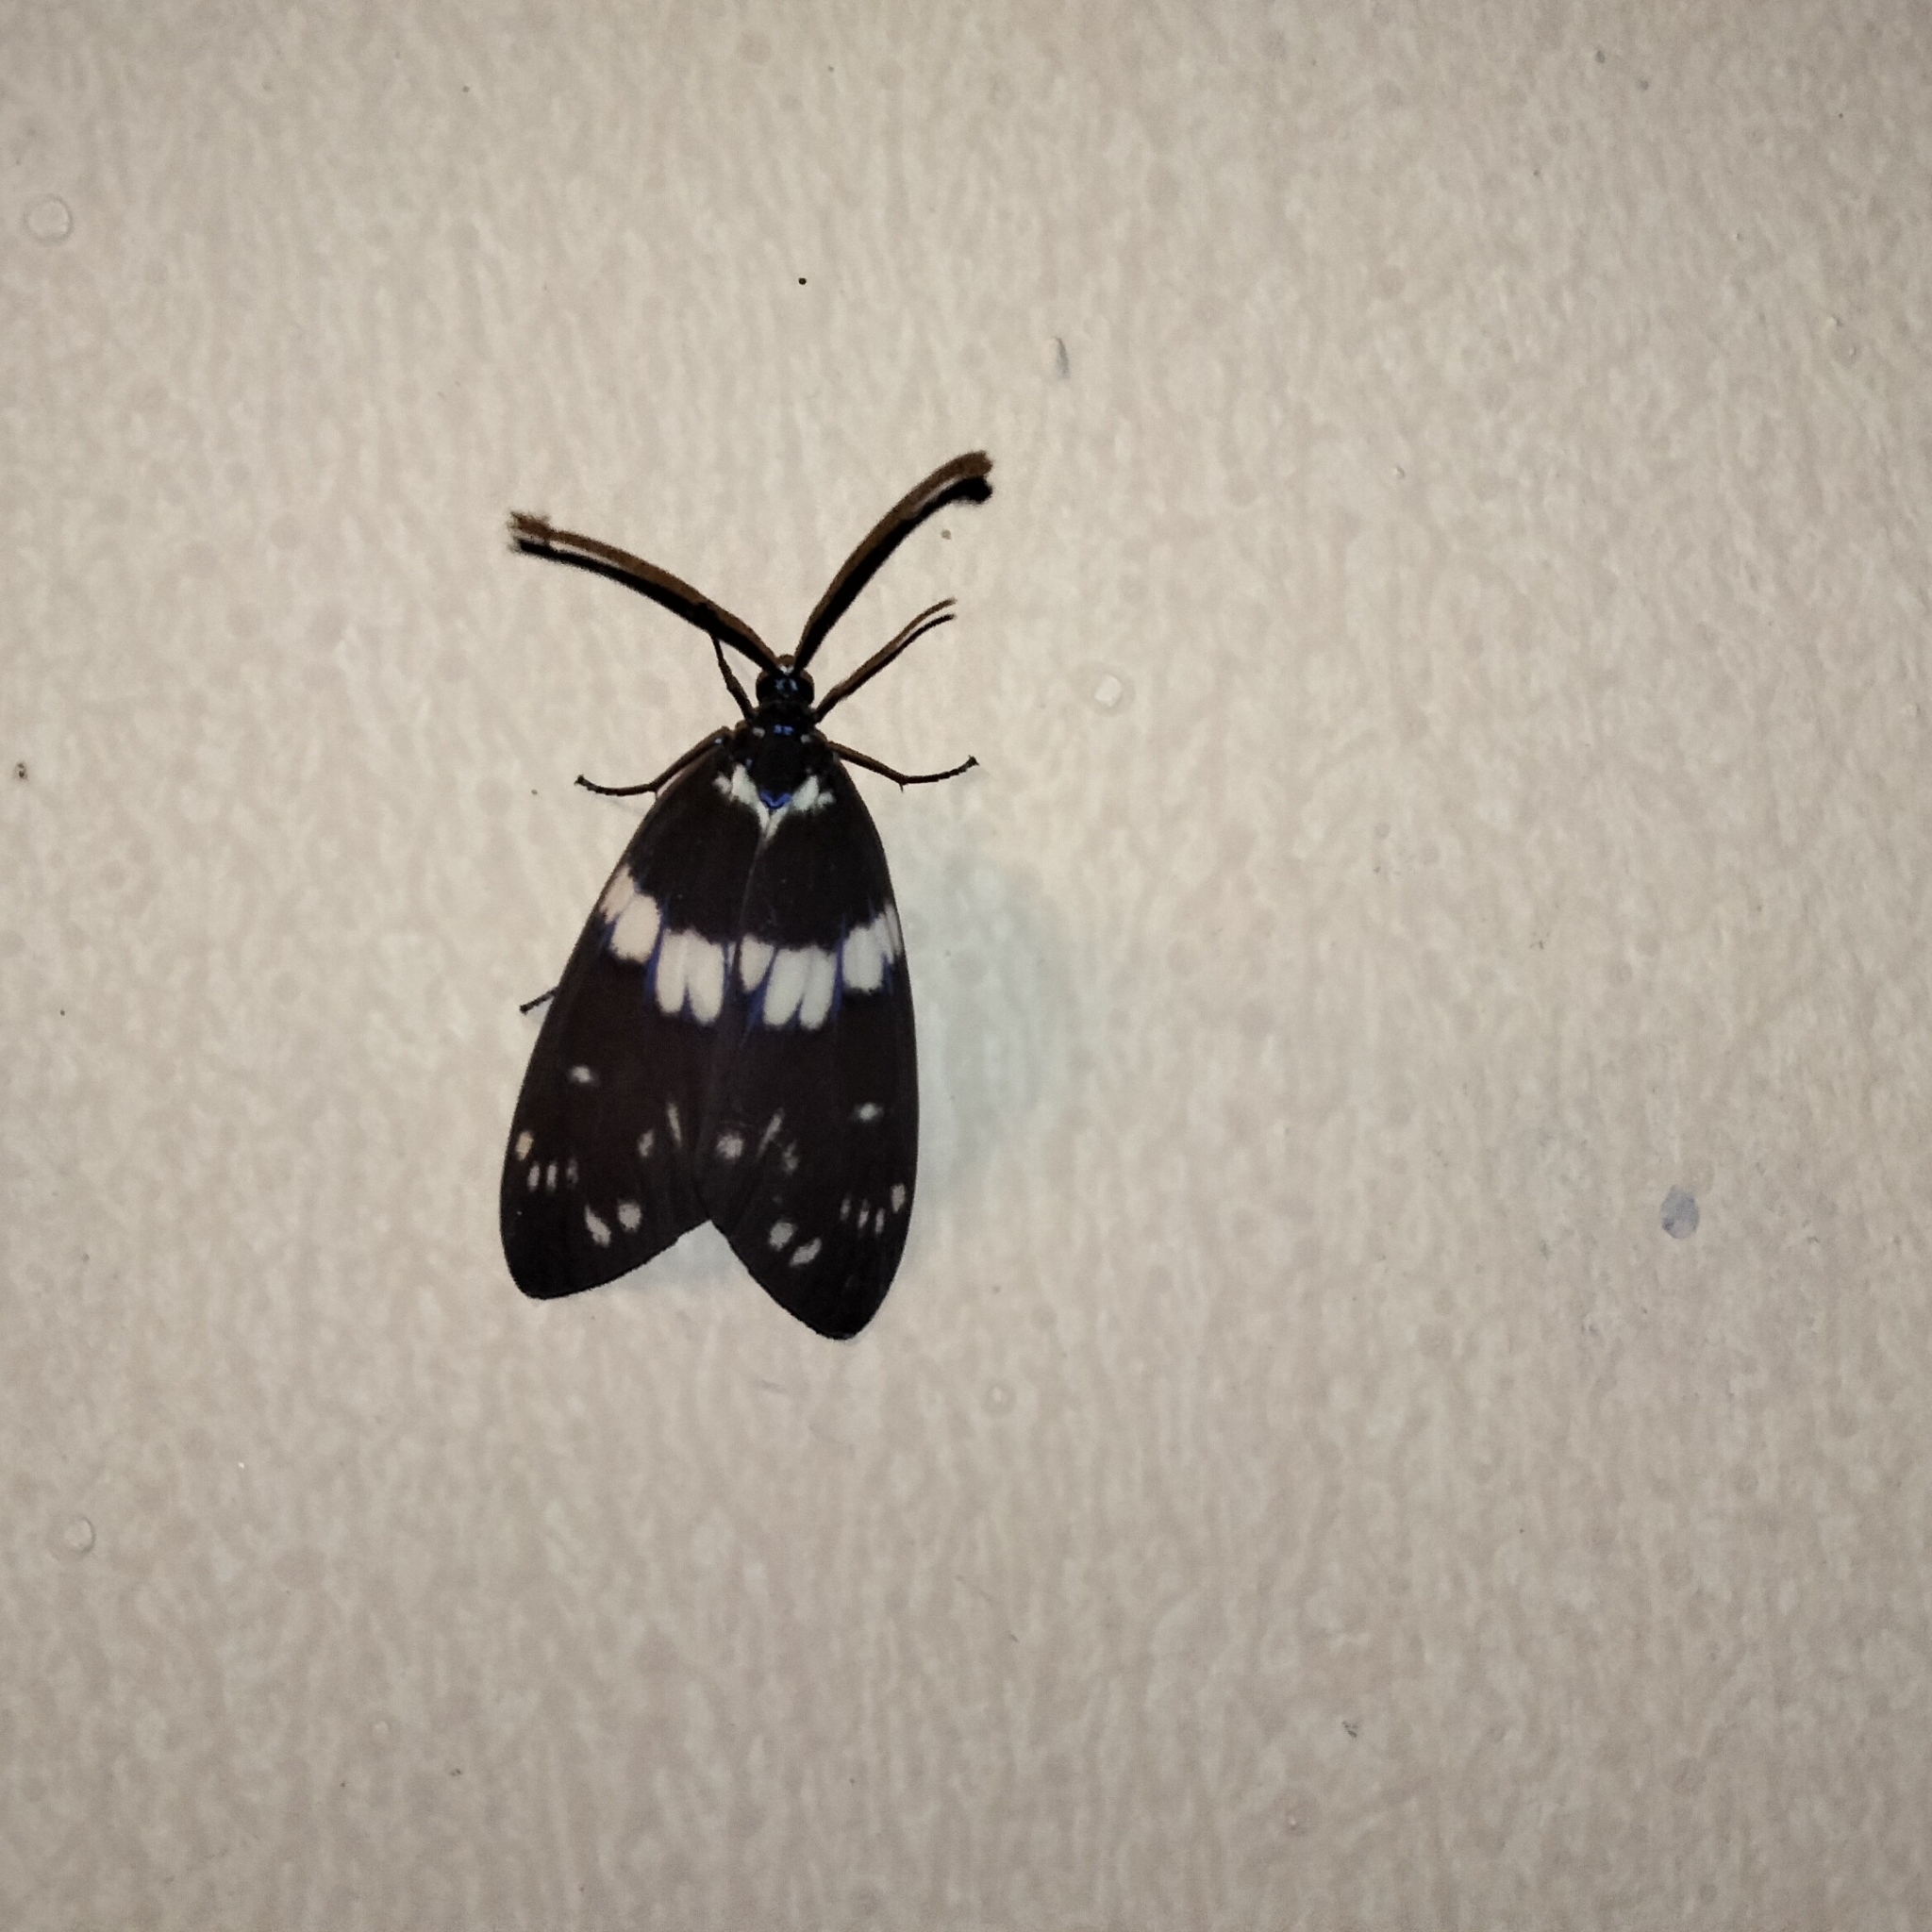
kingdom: Animalia
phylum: Arthropoda
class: Insecta
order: Lepidoptera
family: Zygaenidae
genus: Eterusia
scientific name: Eterusia aedea
